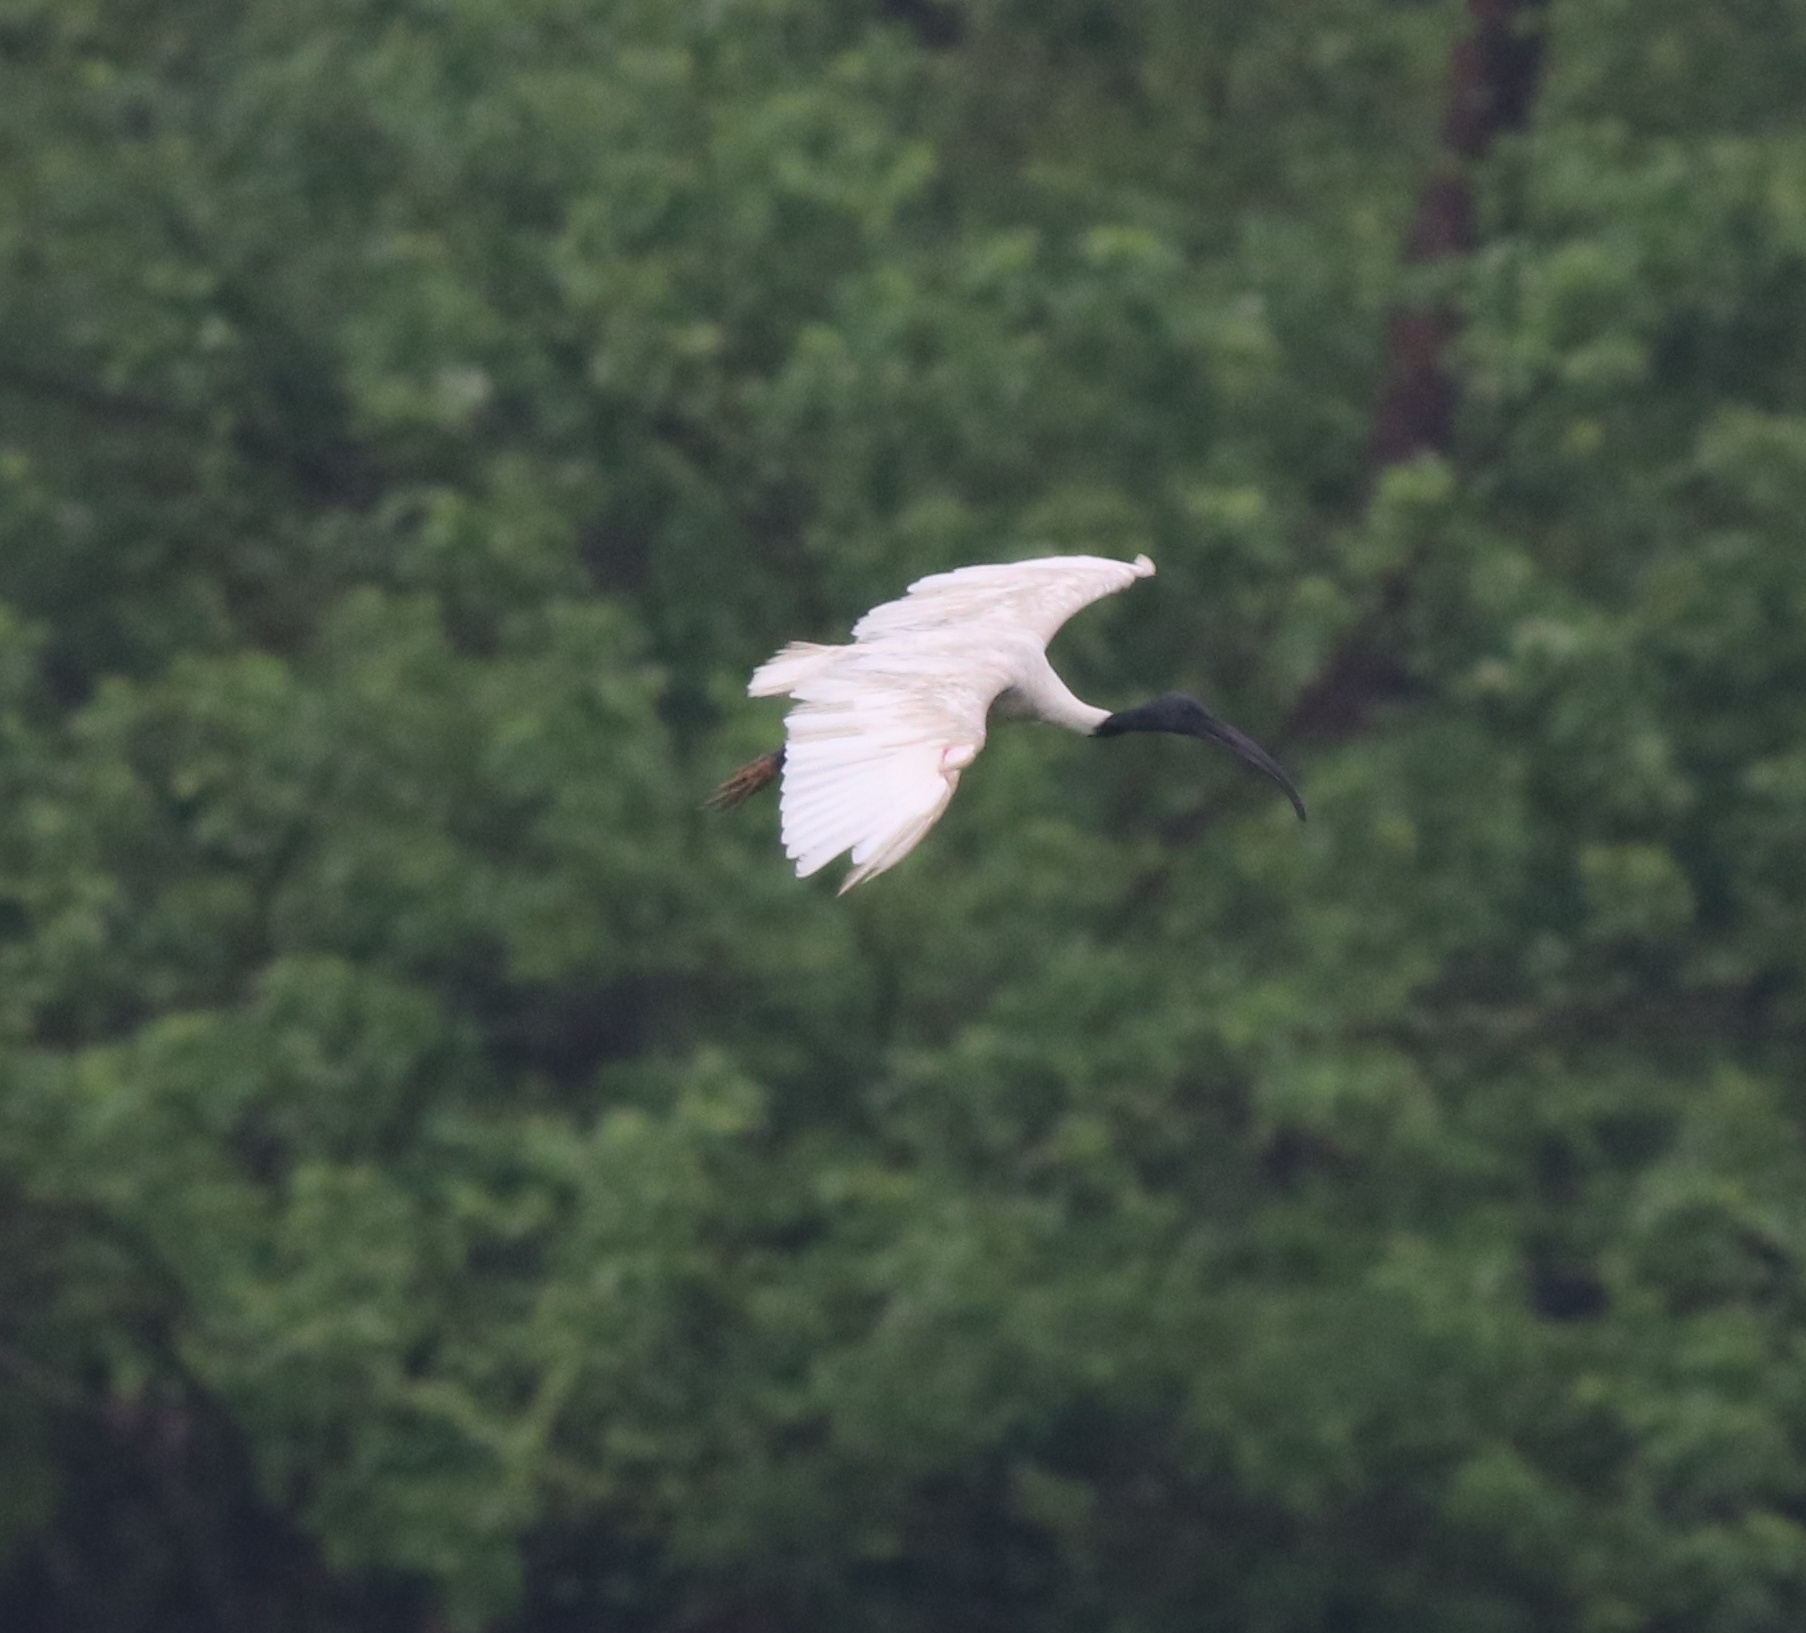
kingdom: Animalia
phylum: Chordata
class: Aves
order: Pelecaniformes
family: Threskiornithidae
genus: Threskiornis
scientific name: Threskiornis melanocephalus
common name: Black-headed ibis
